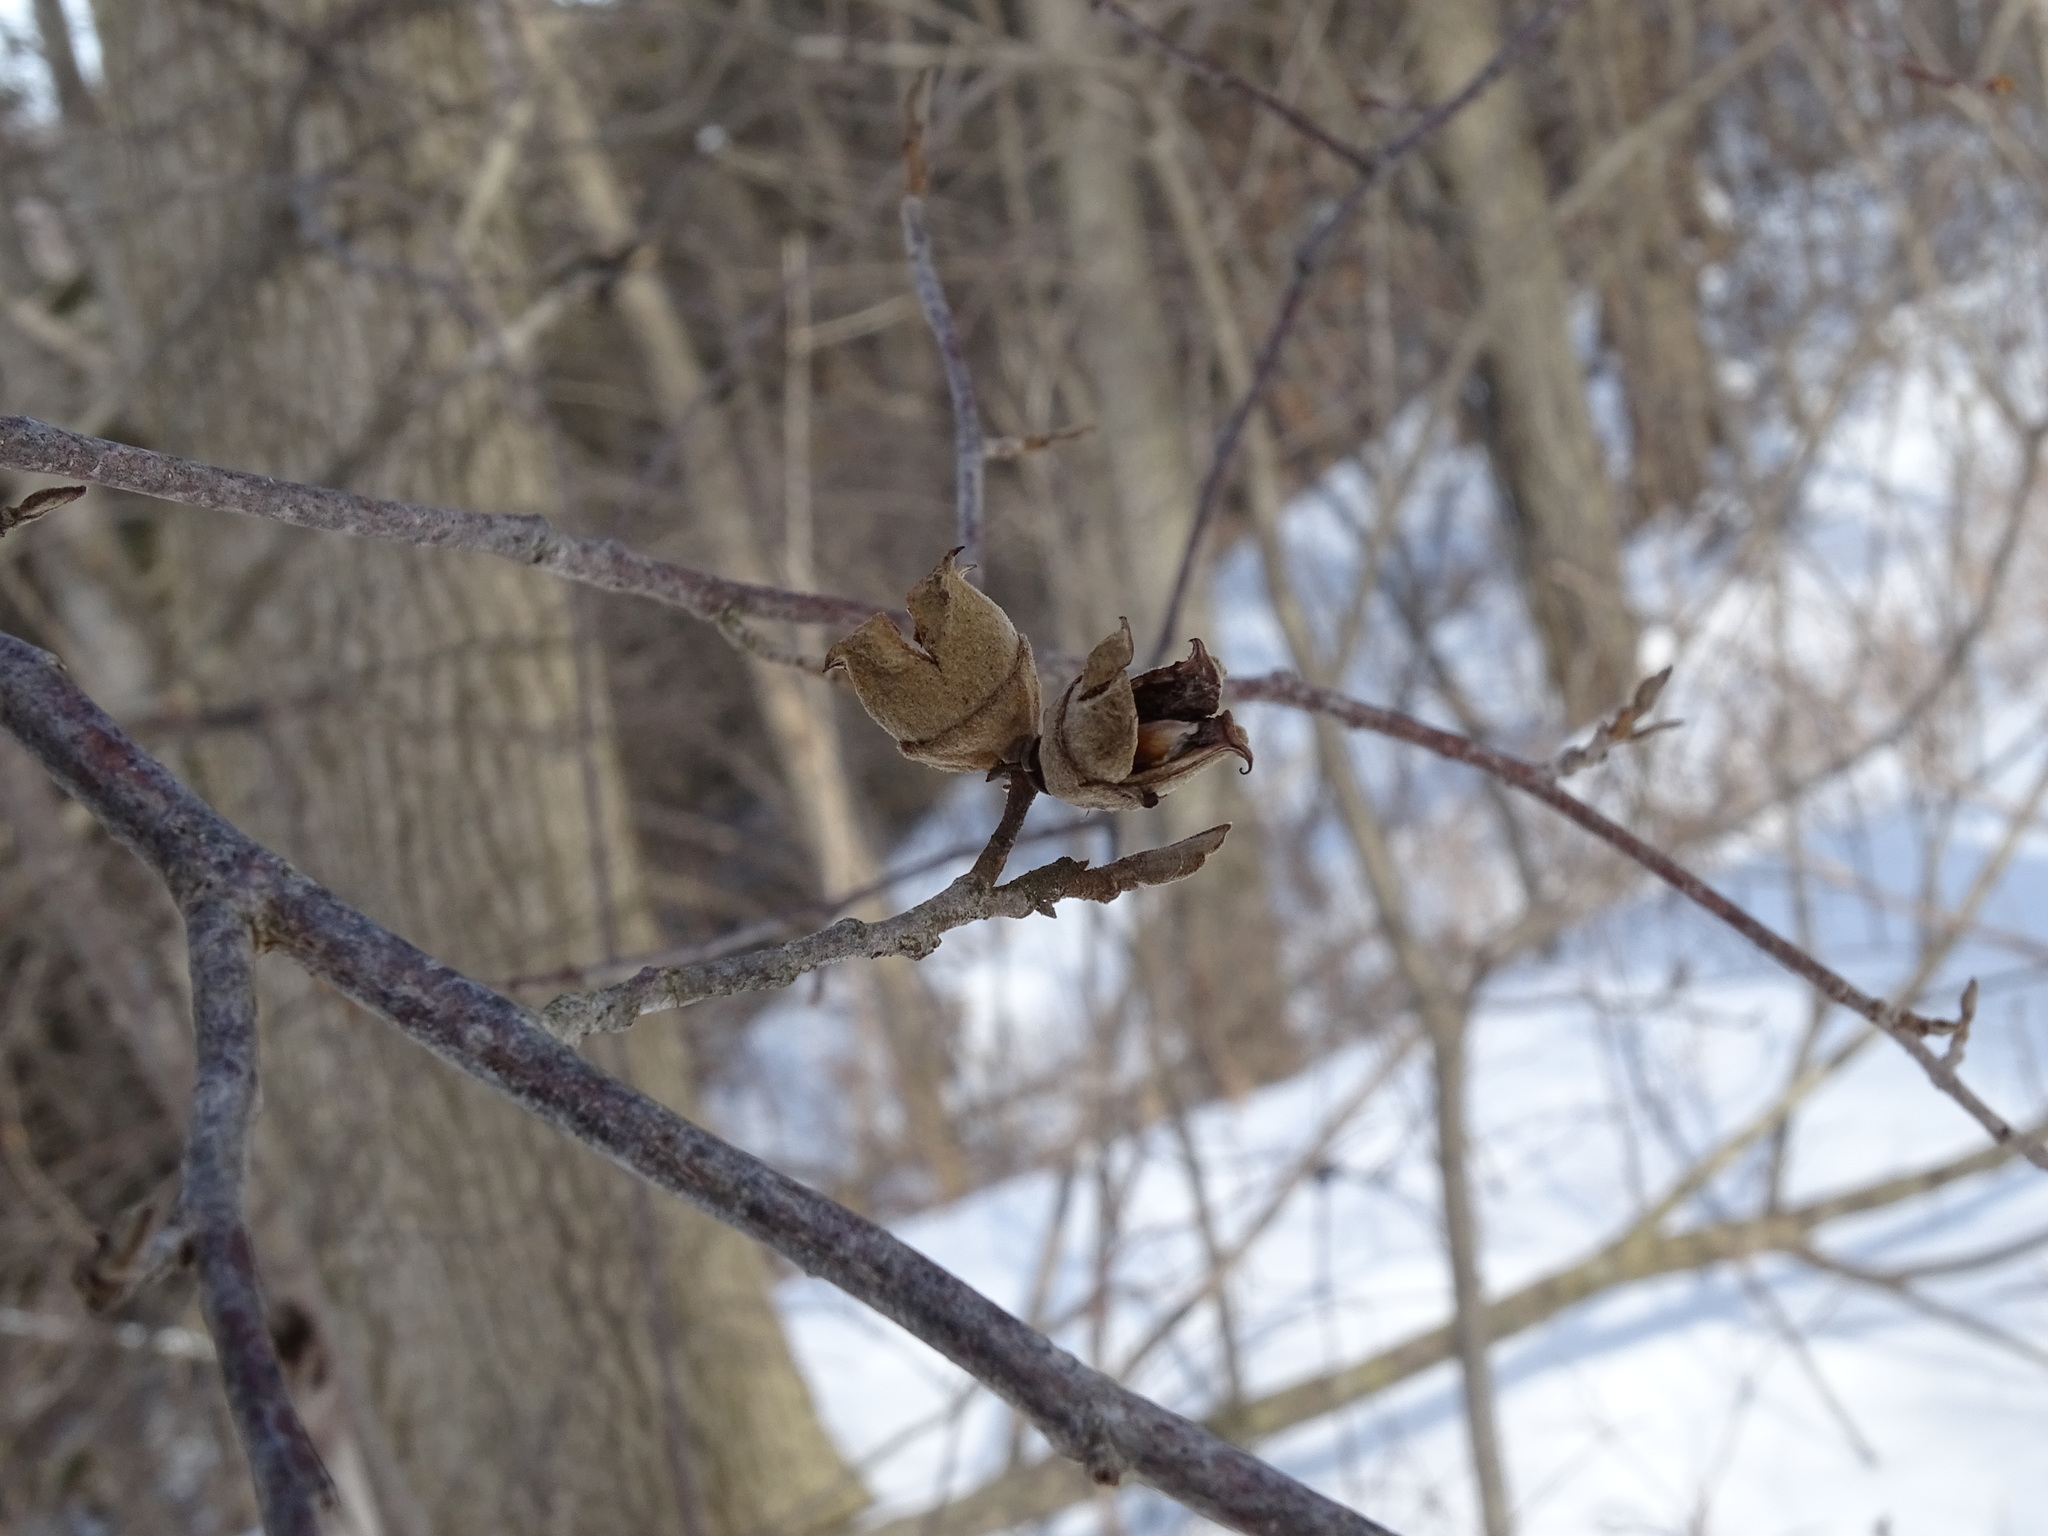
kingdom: Plantae
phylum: Tracheophyta
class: Magnoliopsida
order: Saxifragales
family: Hamamelidaceae
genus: Hamamelis
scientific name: Hamamelis virginiana
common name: Witch-hazel
